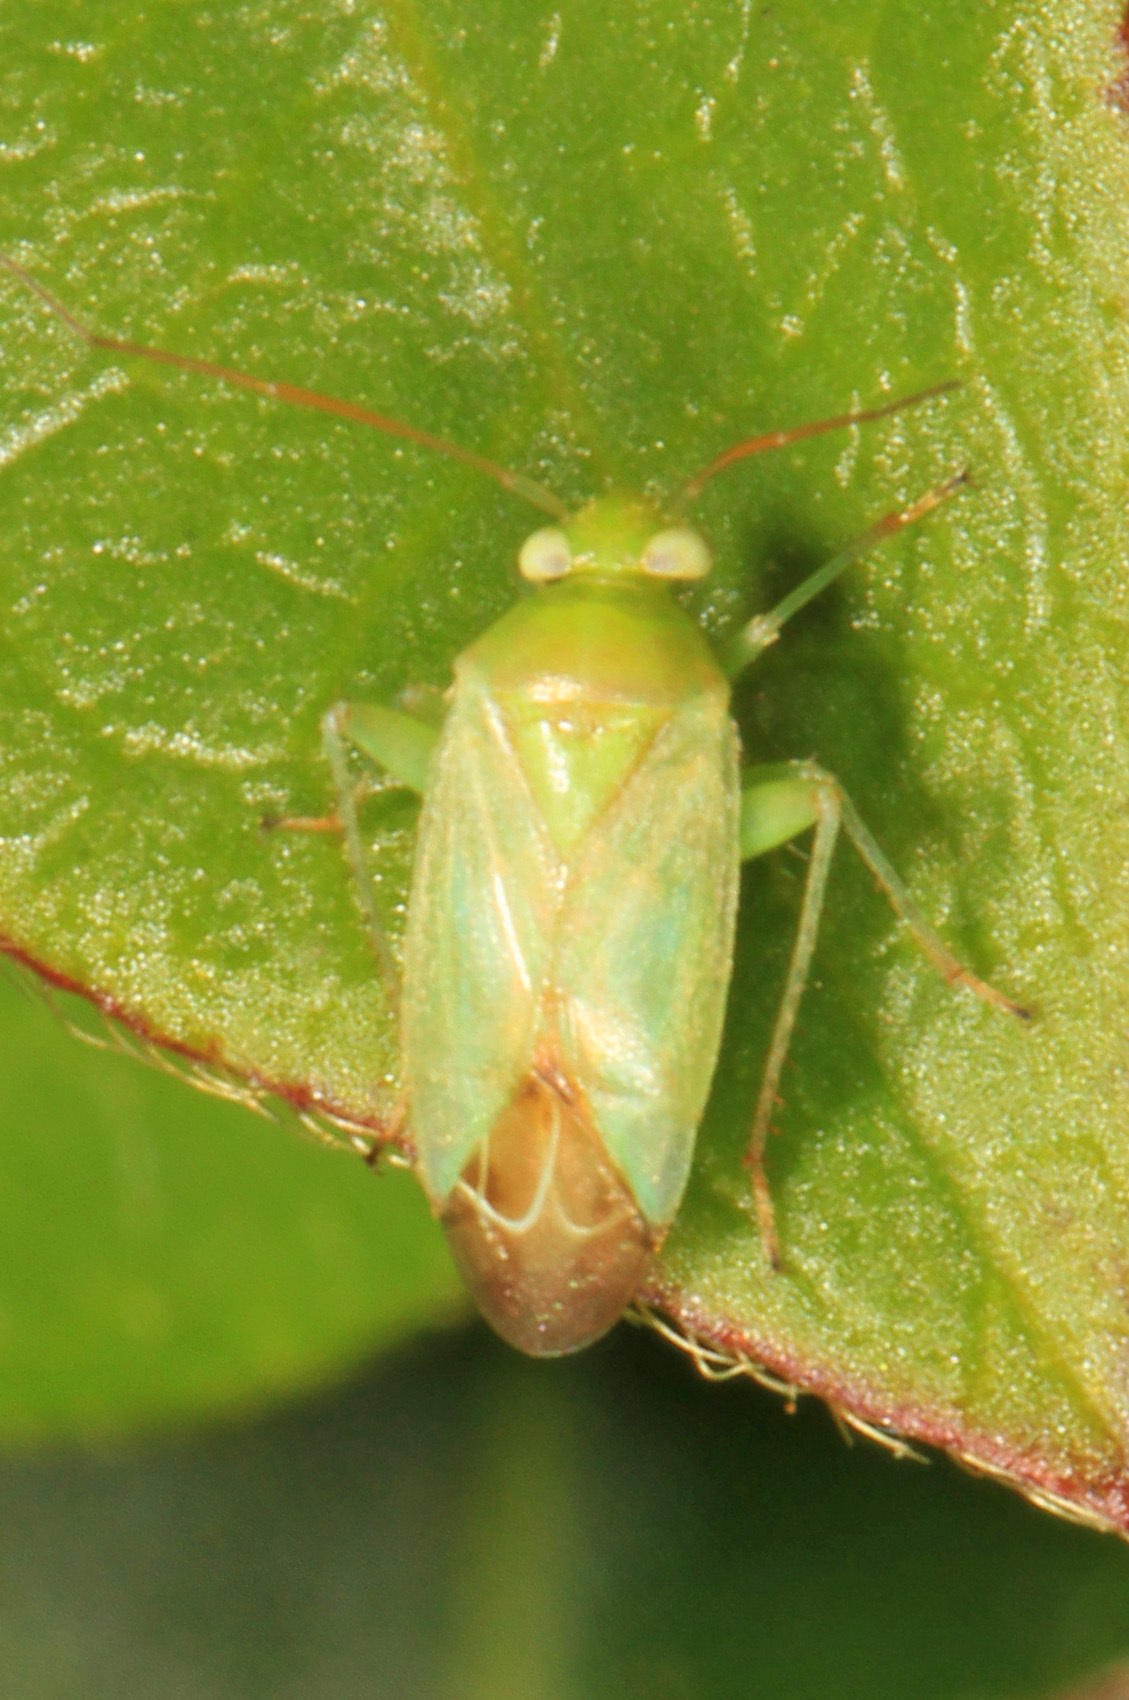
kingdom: Animalia
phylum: Arthropoda
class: Insecta
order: Hemiptera
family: Miridae
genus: Taylorilygus
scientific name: Taylorilygus apicalis
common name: Plant bug
